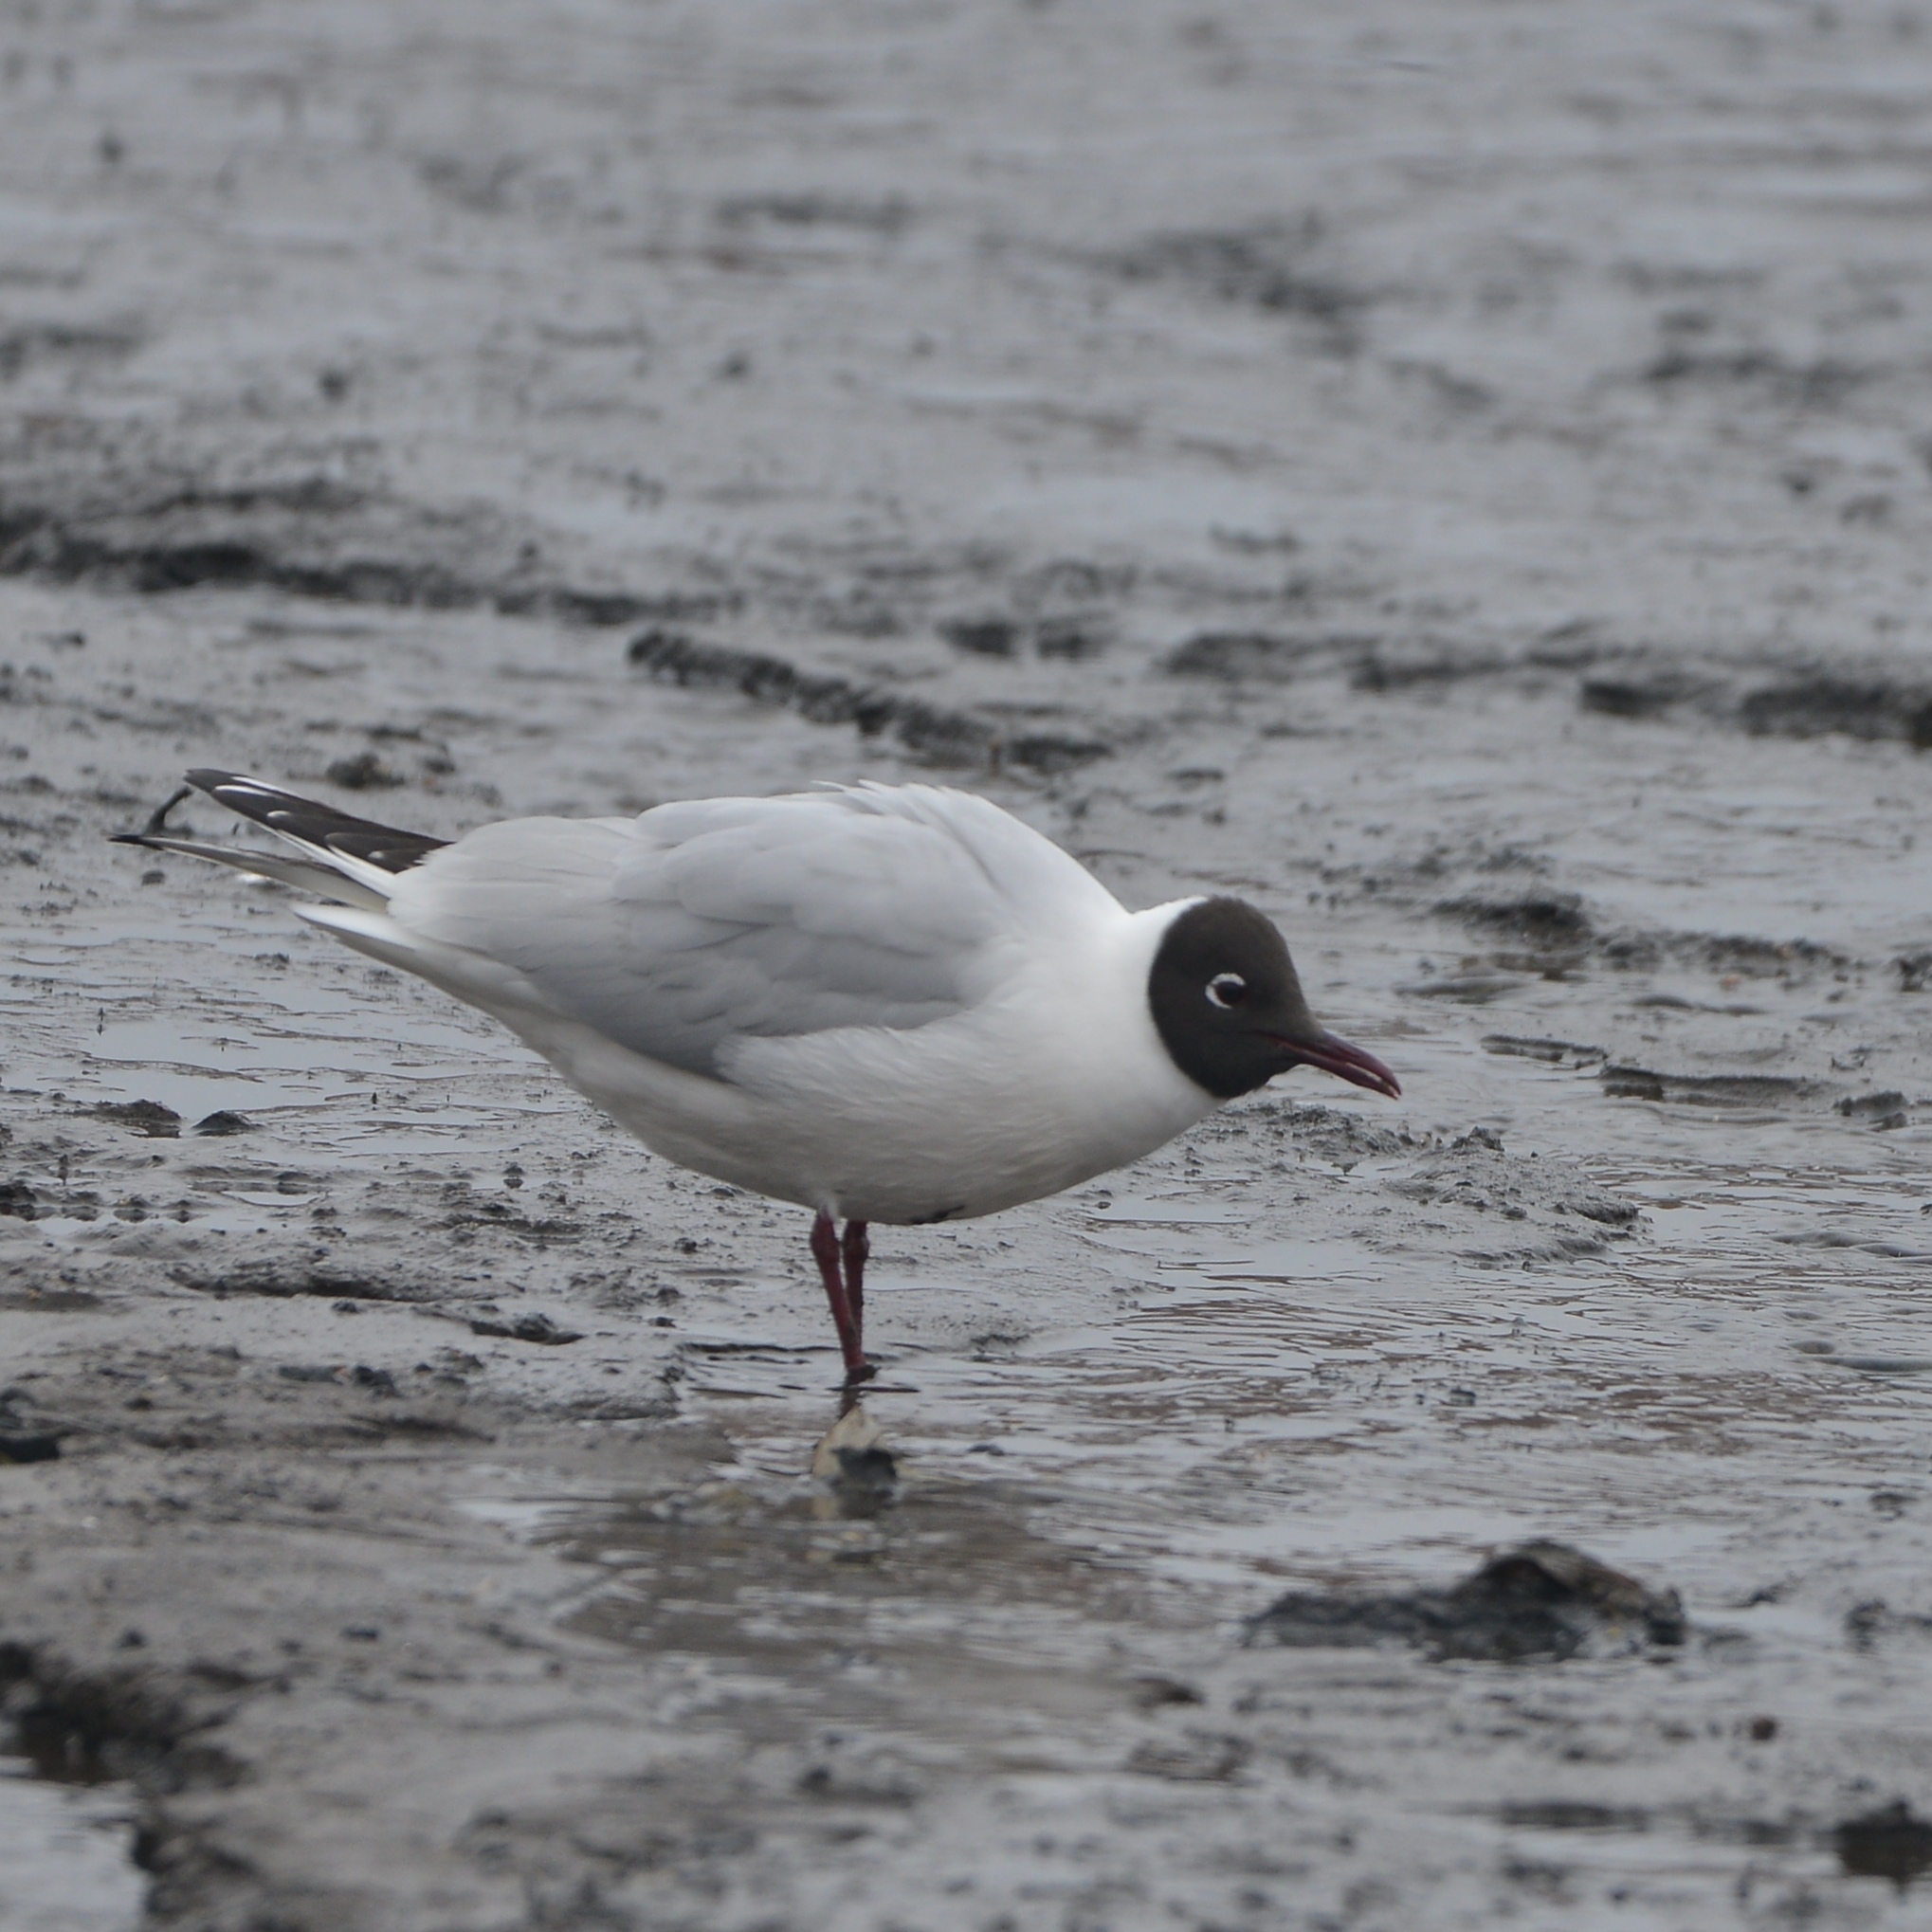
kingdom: Animalia
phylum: Chordata
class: Aves
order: Charadriiformes
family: Laridae
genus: Chroicocephalus
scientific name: Chroicocephalus ridibundus
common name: Black-headed gull
